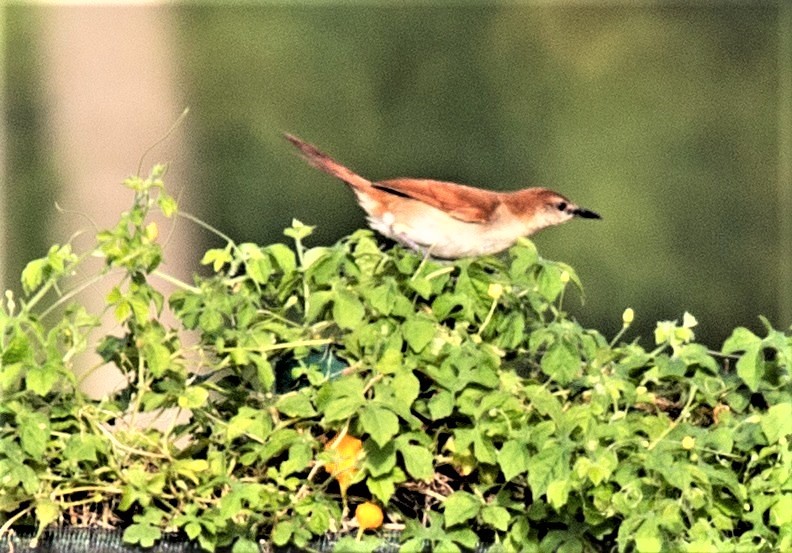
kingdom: Animalia
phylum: Chordata
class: Aves
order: Passeriformes
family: Furnariidae
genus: Certhiaxis
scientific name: Certhiaxis cinnamomeus
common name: Yellow-chinned spinetail
